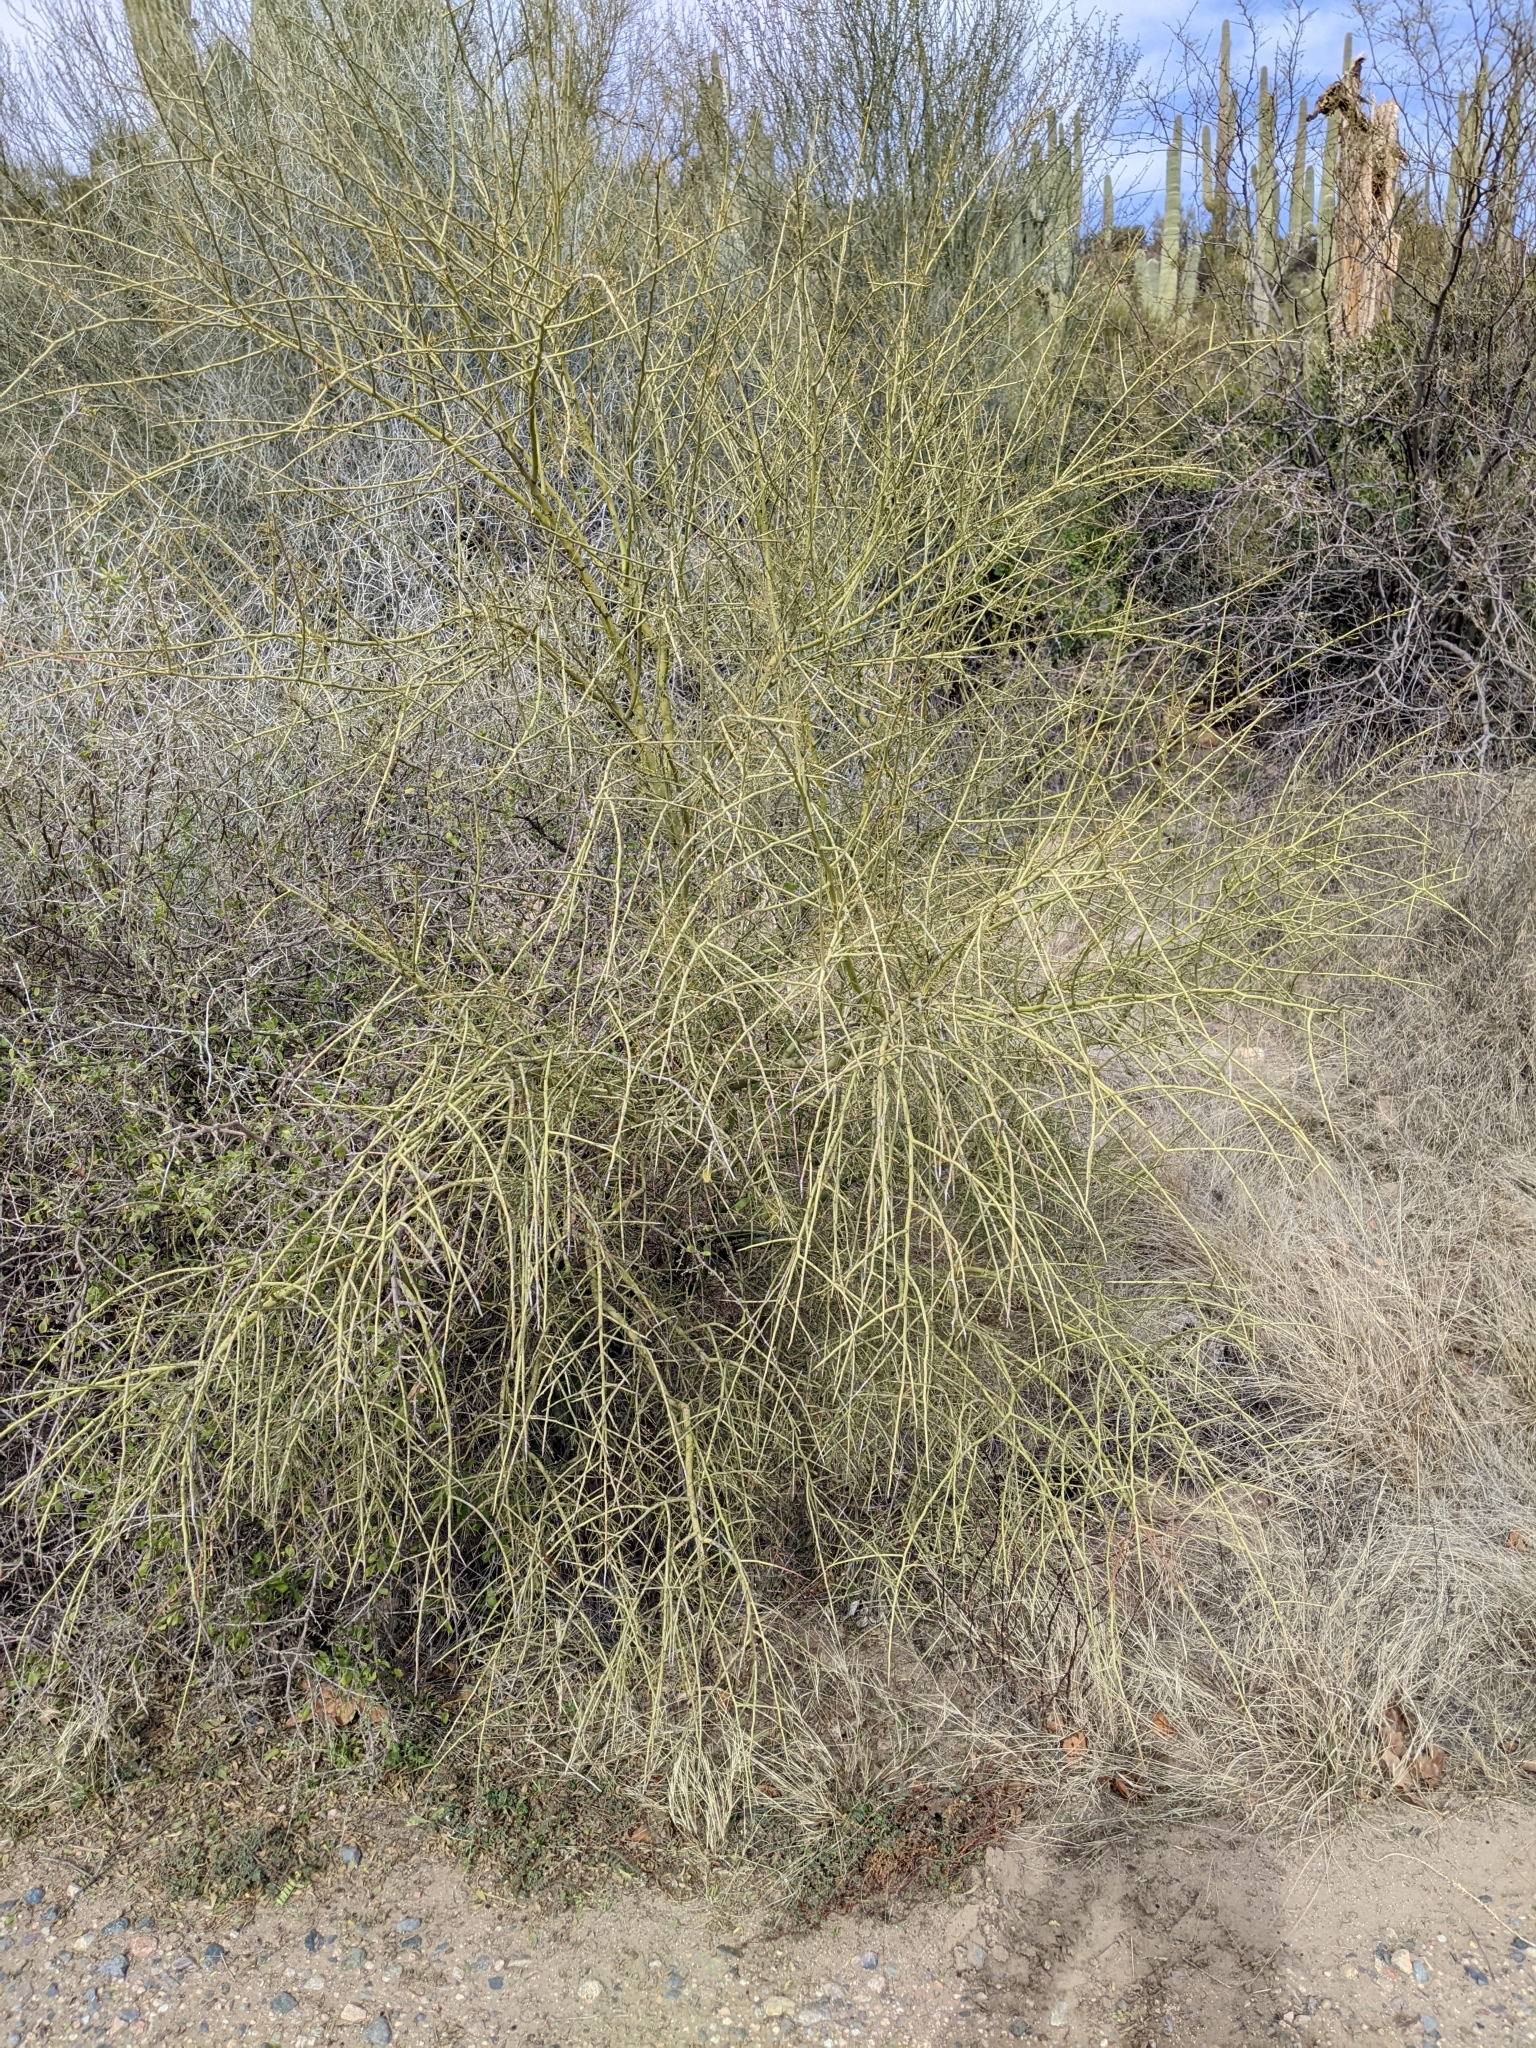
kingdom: Plantae
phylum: Tracheophyta
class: Magnoliopsida
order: Fabales
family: Fabaceae
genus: Parkinsonia
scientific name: Parkinsonia microphylla
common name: Yellow paloverde
